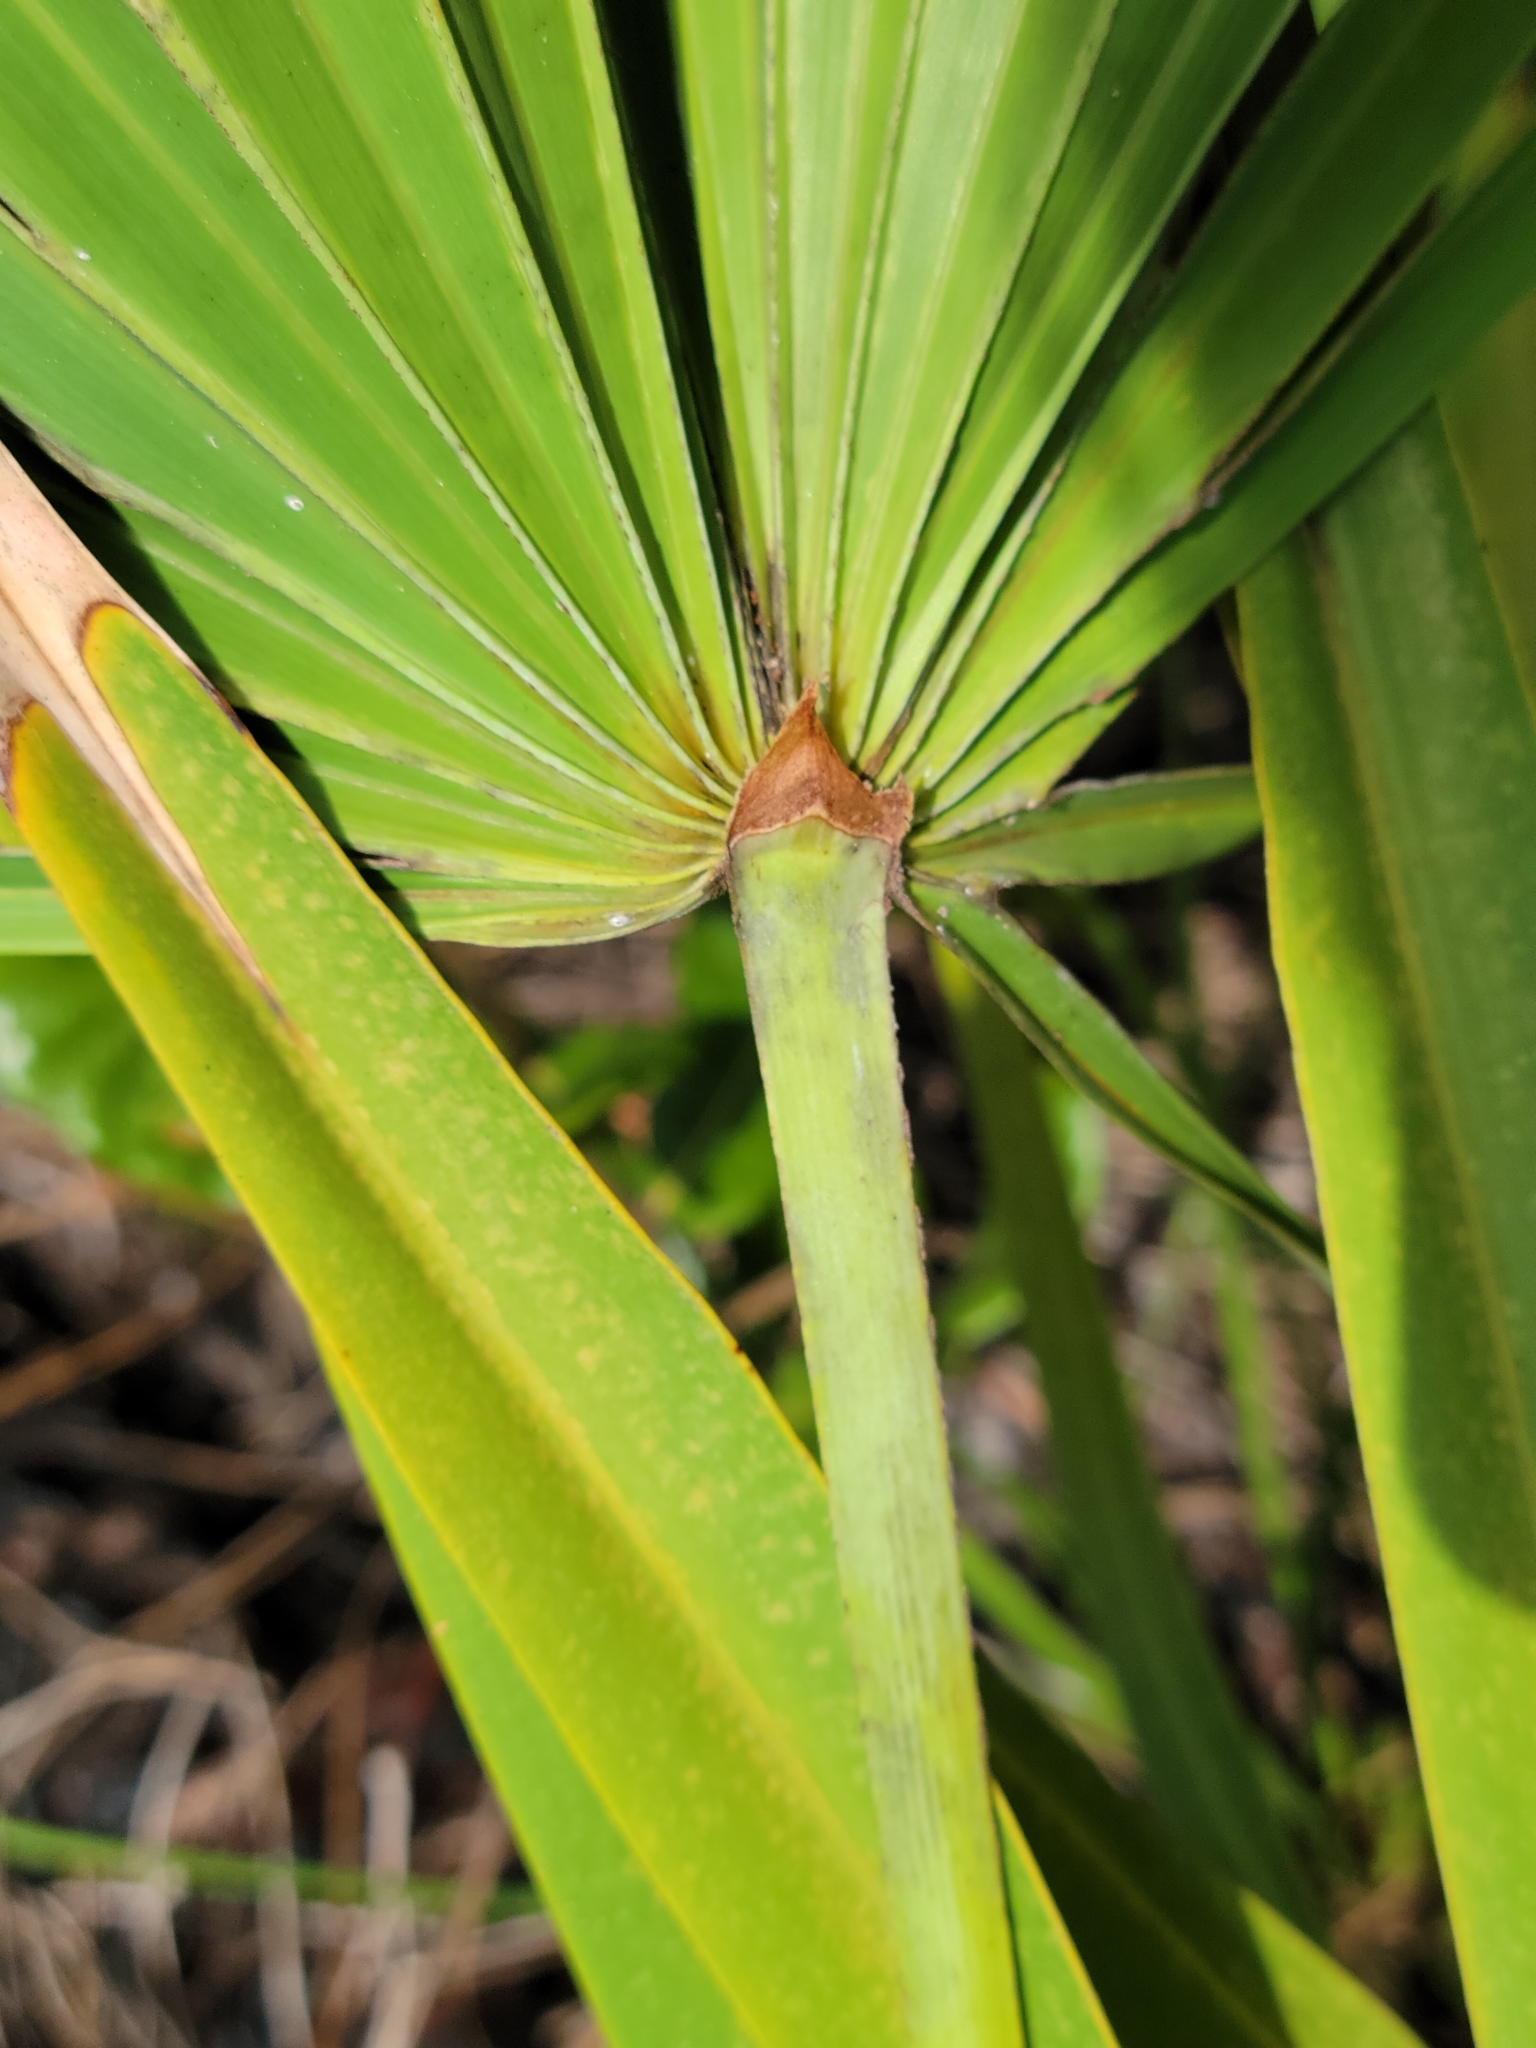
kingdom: Plantae
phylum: Tracheophyta
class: Liliopsida
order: Arecales
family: Arecaceae
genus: Serenoa
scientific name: Serenoa repens
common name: Saw-palmetto
